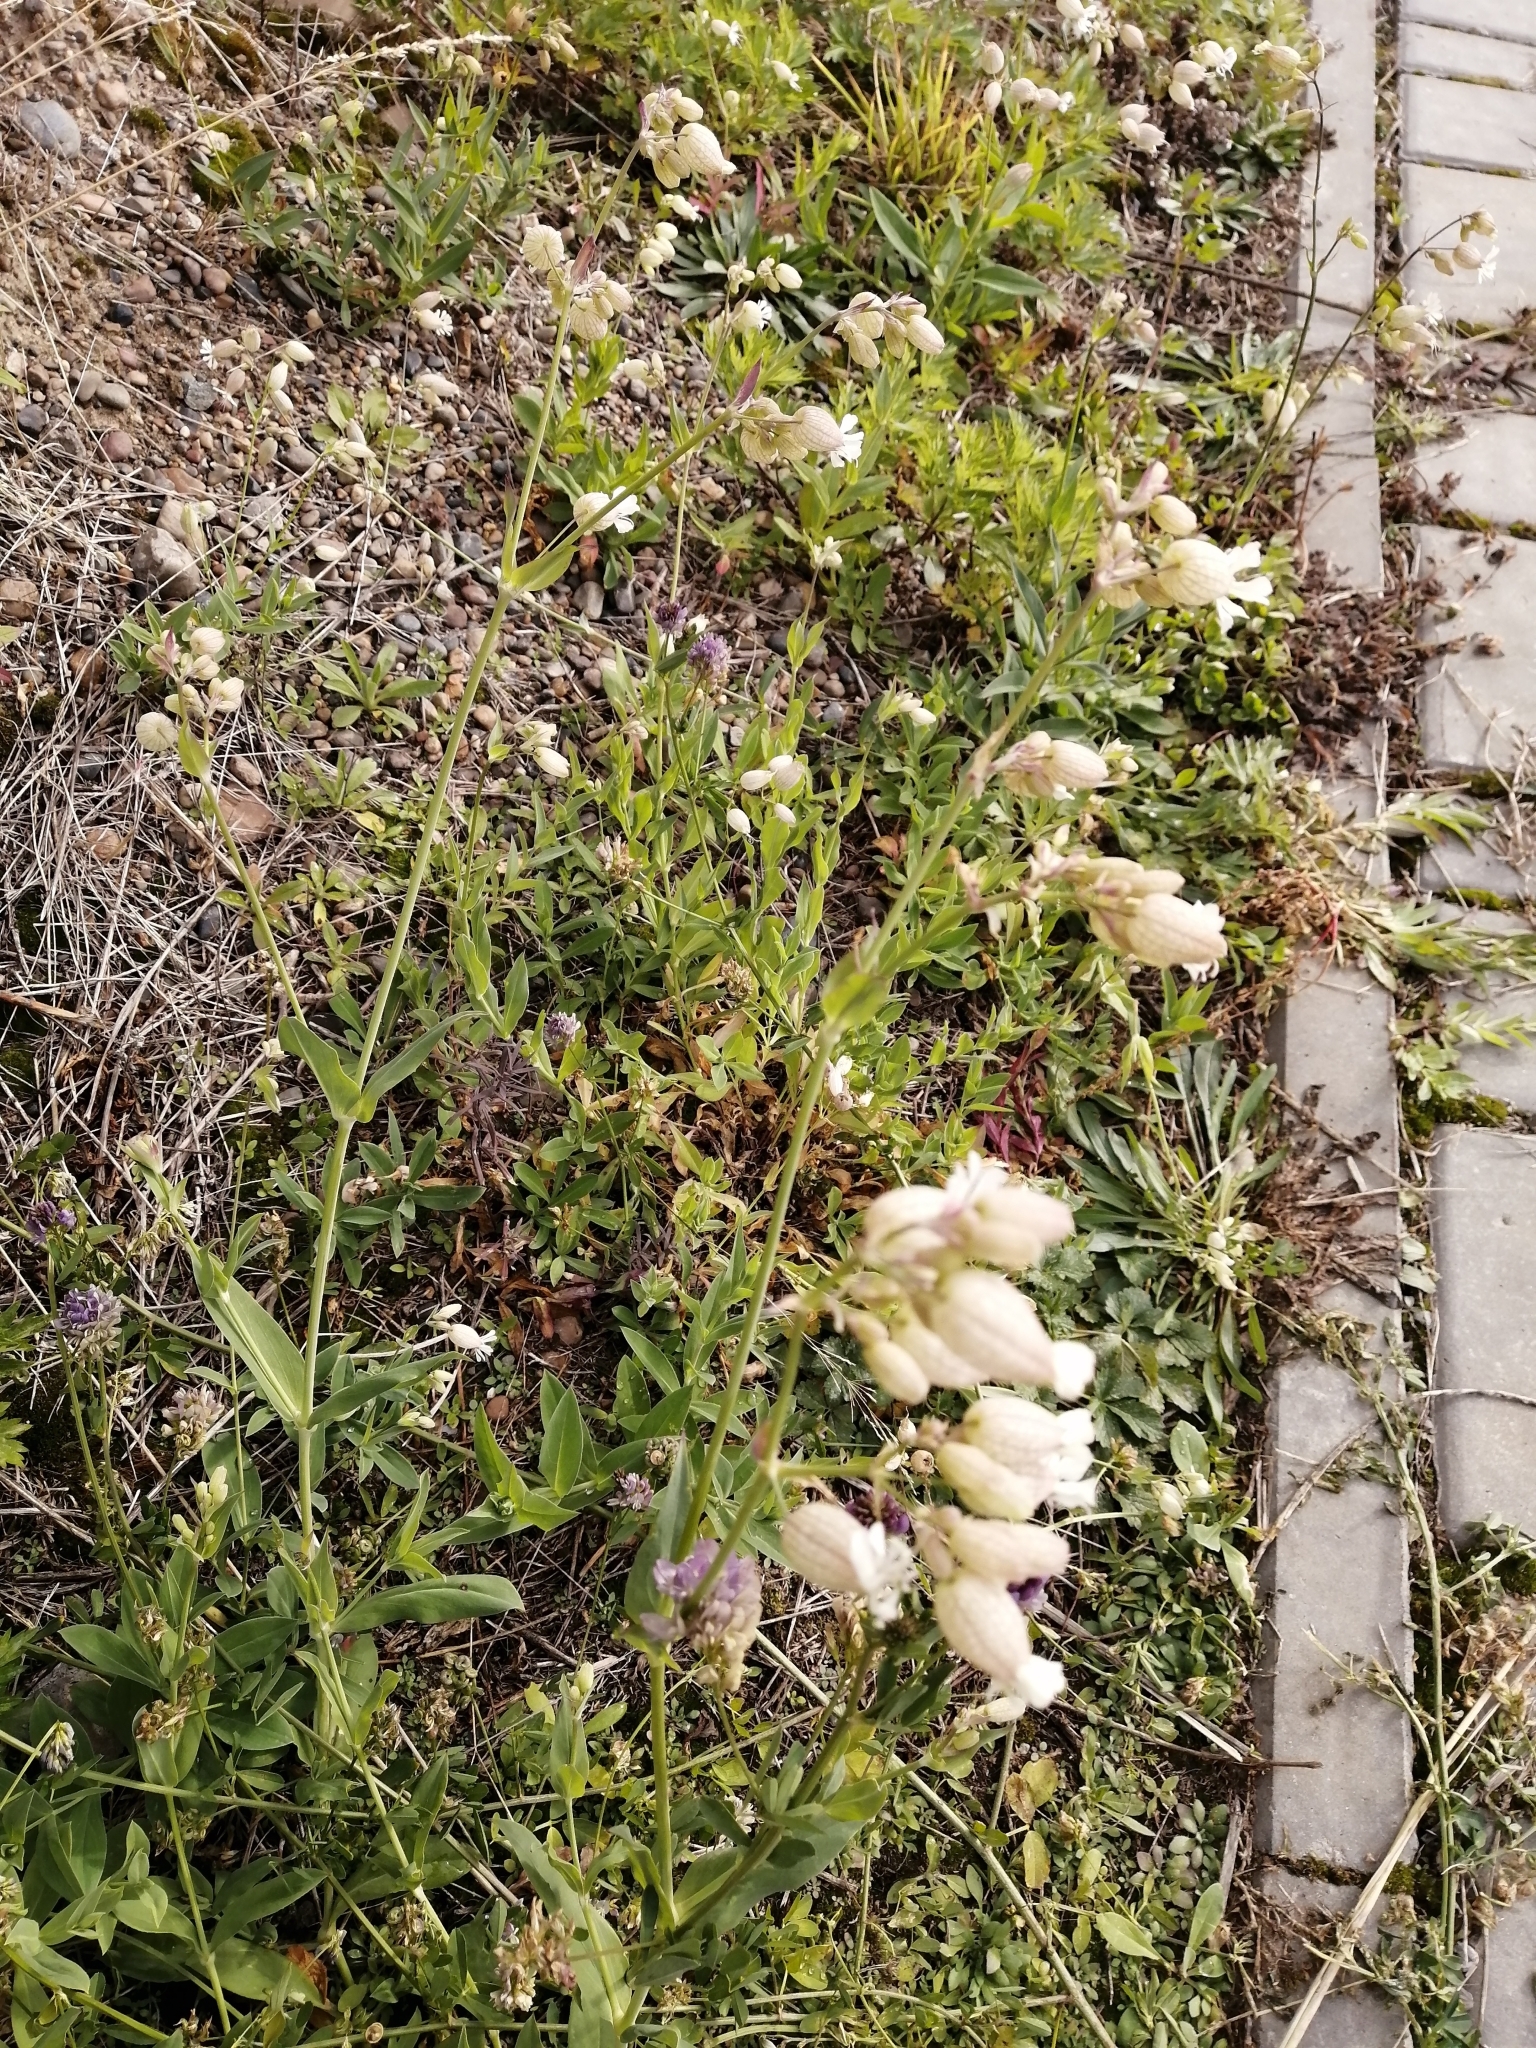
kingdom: Plantae
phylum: Tracheophyta
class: Magnoliopsida
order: Caryophyllales
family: Caryophyllaceae
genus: Silene
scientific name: Silene vulgaris
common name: Bladder campion
